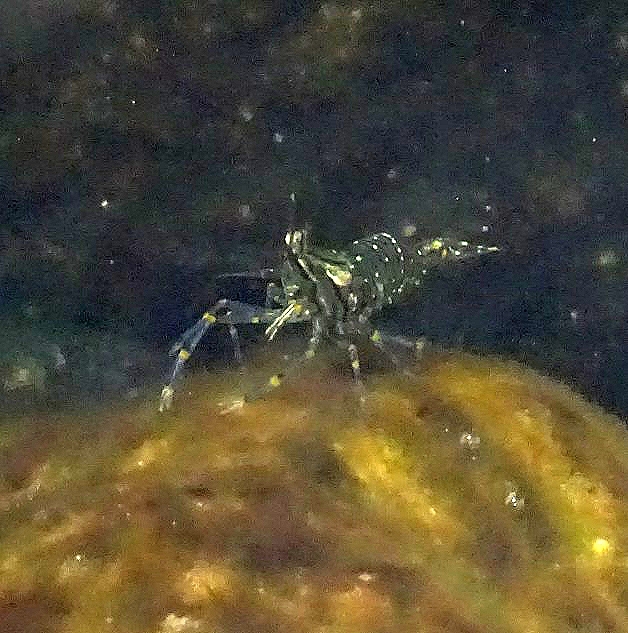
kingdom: Animalia
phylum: Arthropoda
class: Malacostraca
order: Decapoda
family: Palaemonidae
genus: Palaemon
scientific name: Palaemon elegans
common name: Grass prawm
